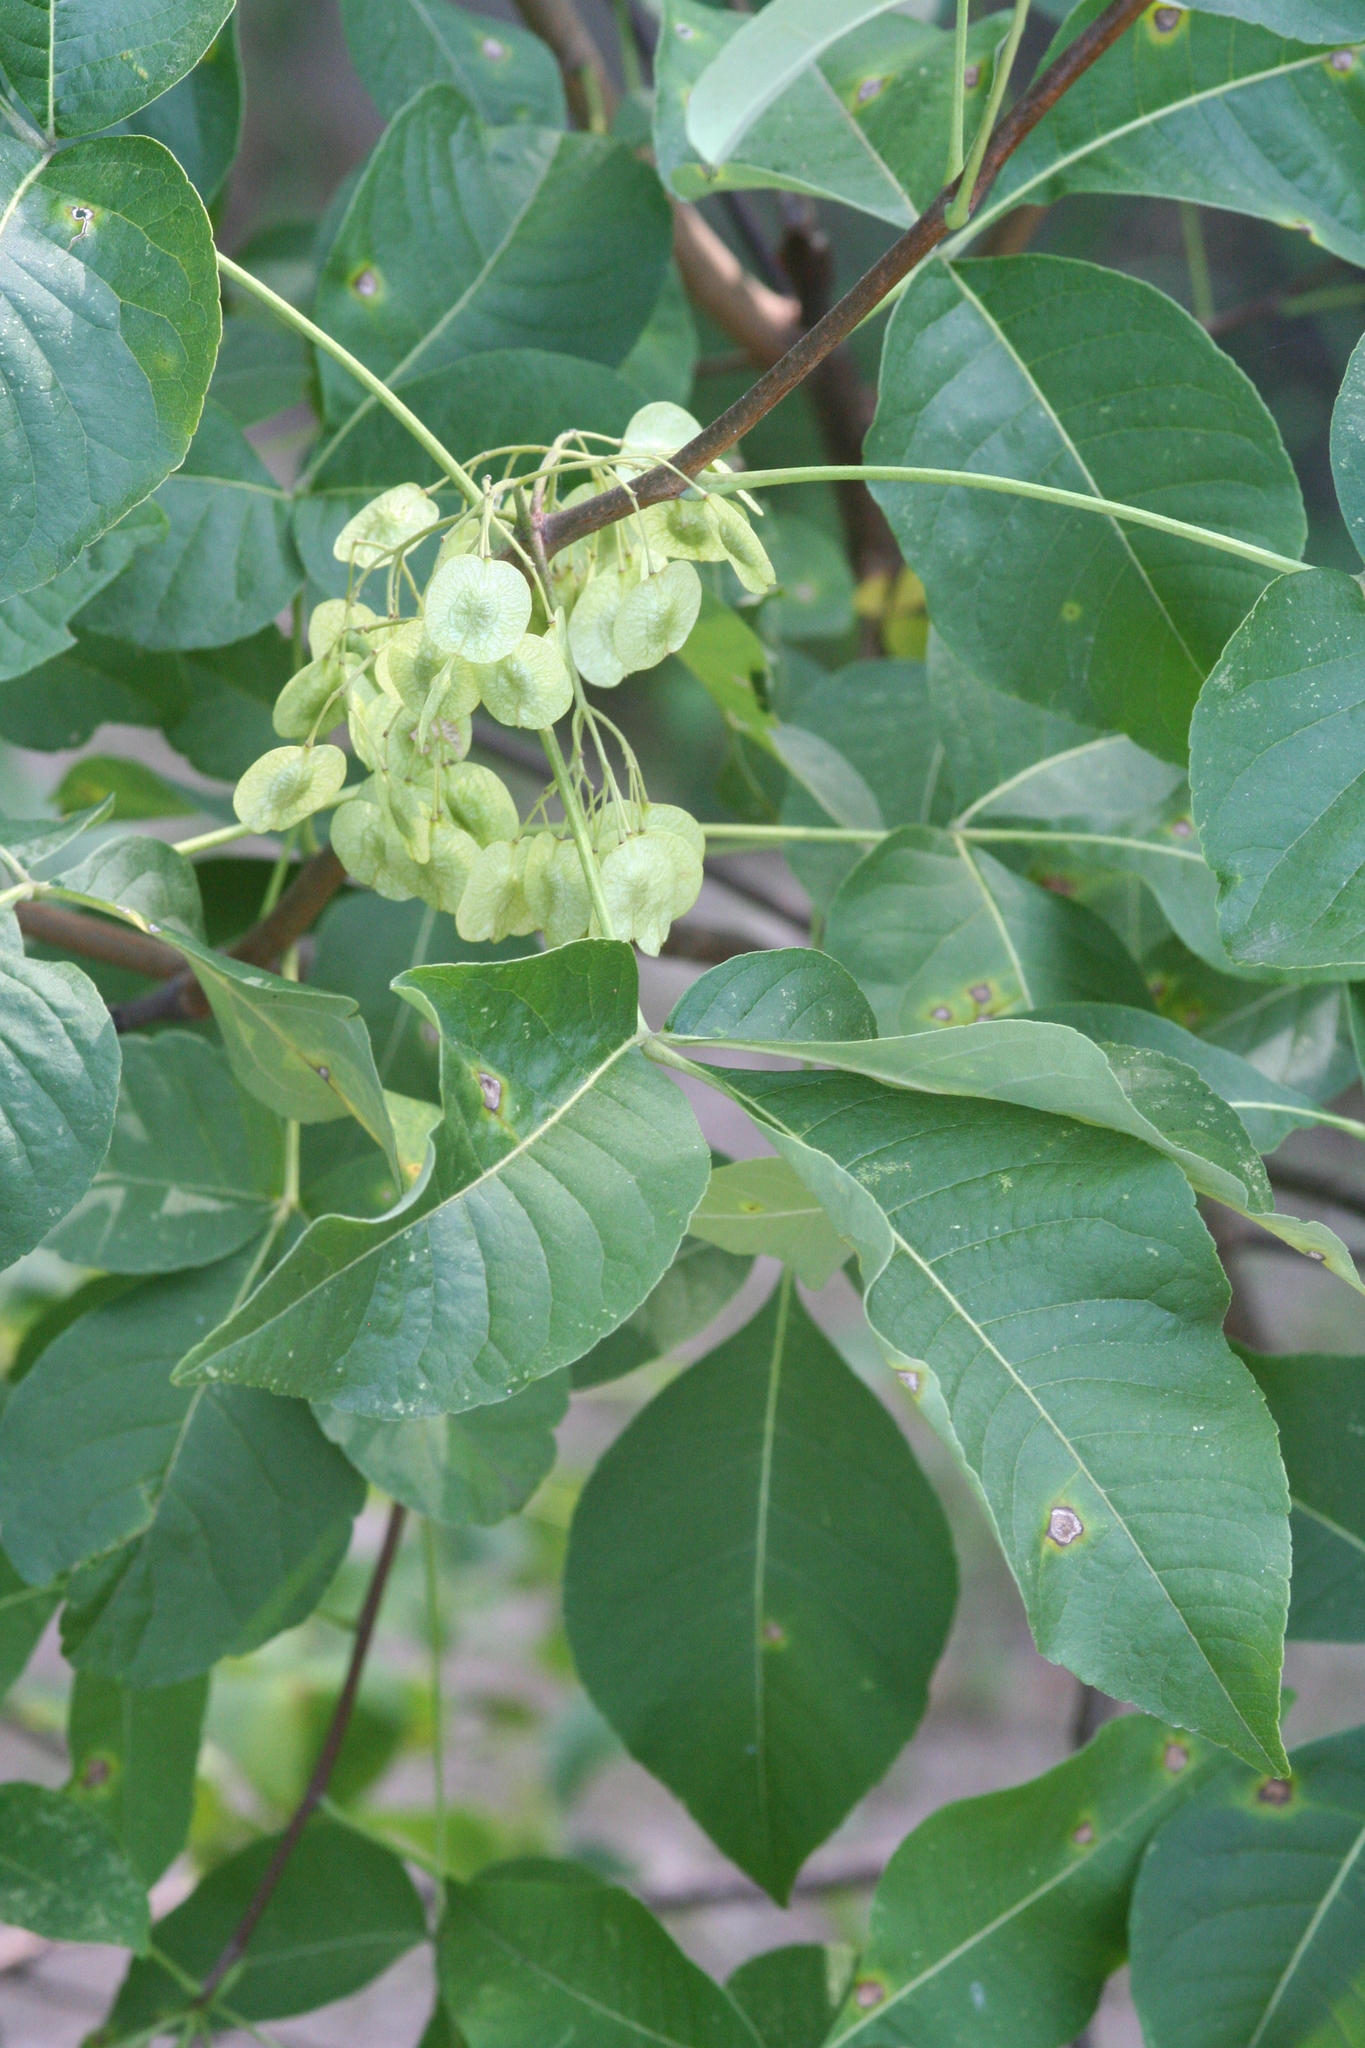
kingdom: Plantae
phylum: Tracheophyta
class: Magnoliopsida
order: Sapindales
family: Rutaceae
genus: Ptelea
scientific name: Ptelea trifoliata
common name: Common hop-tree
